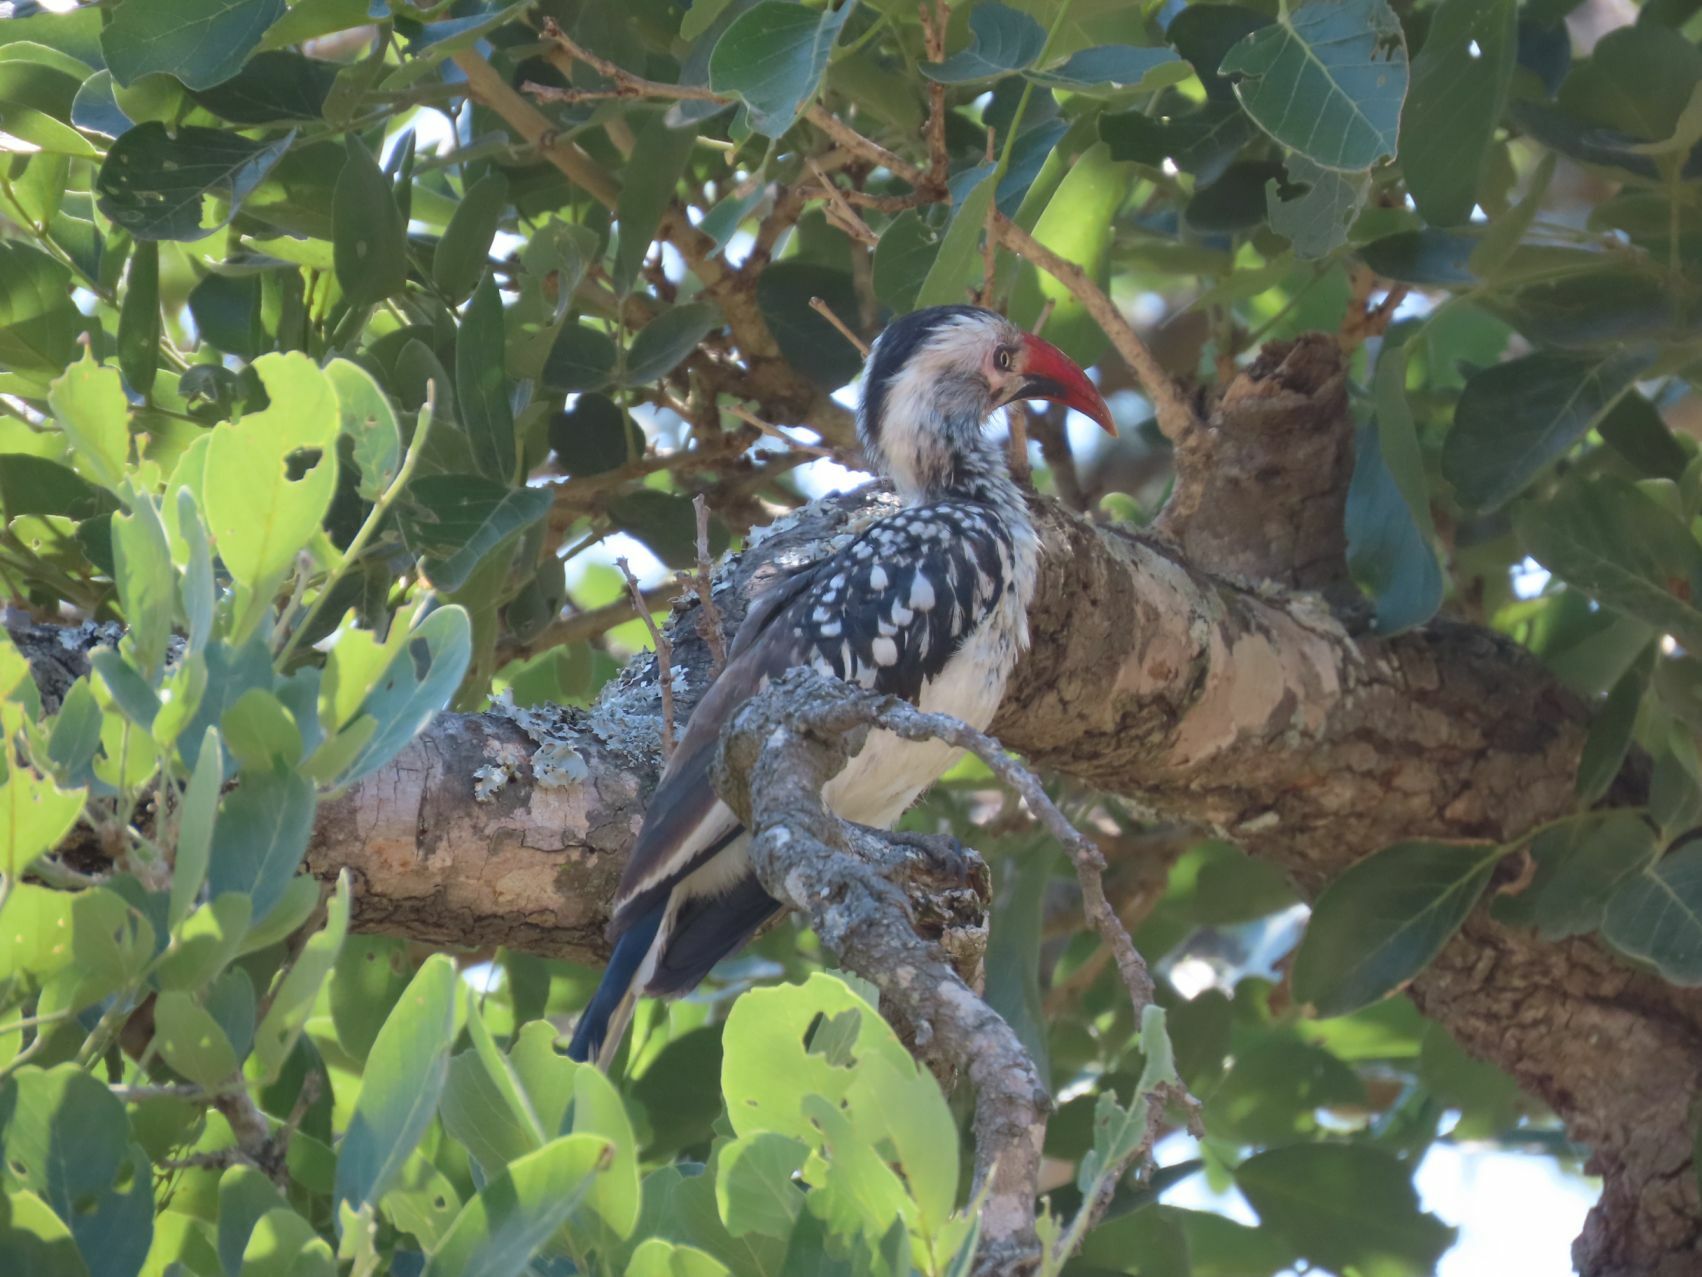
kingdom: Animalia
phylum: Chordata
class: Aves
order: Bucerotiformes
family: Bucerotidae
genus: Tockus
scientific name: Tockus rufirostris
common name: Southern red-billed hornbill
